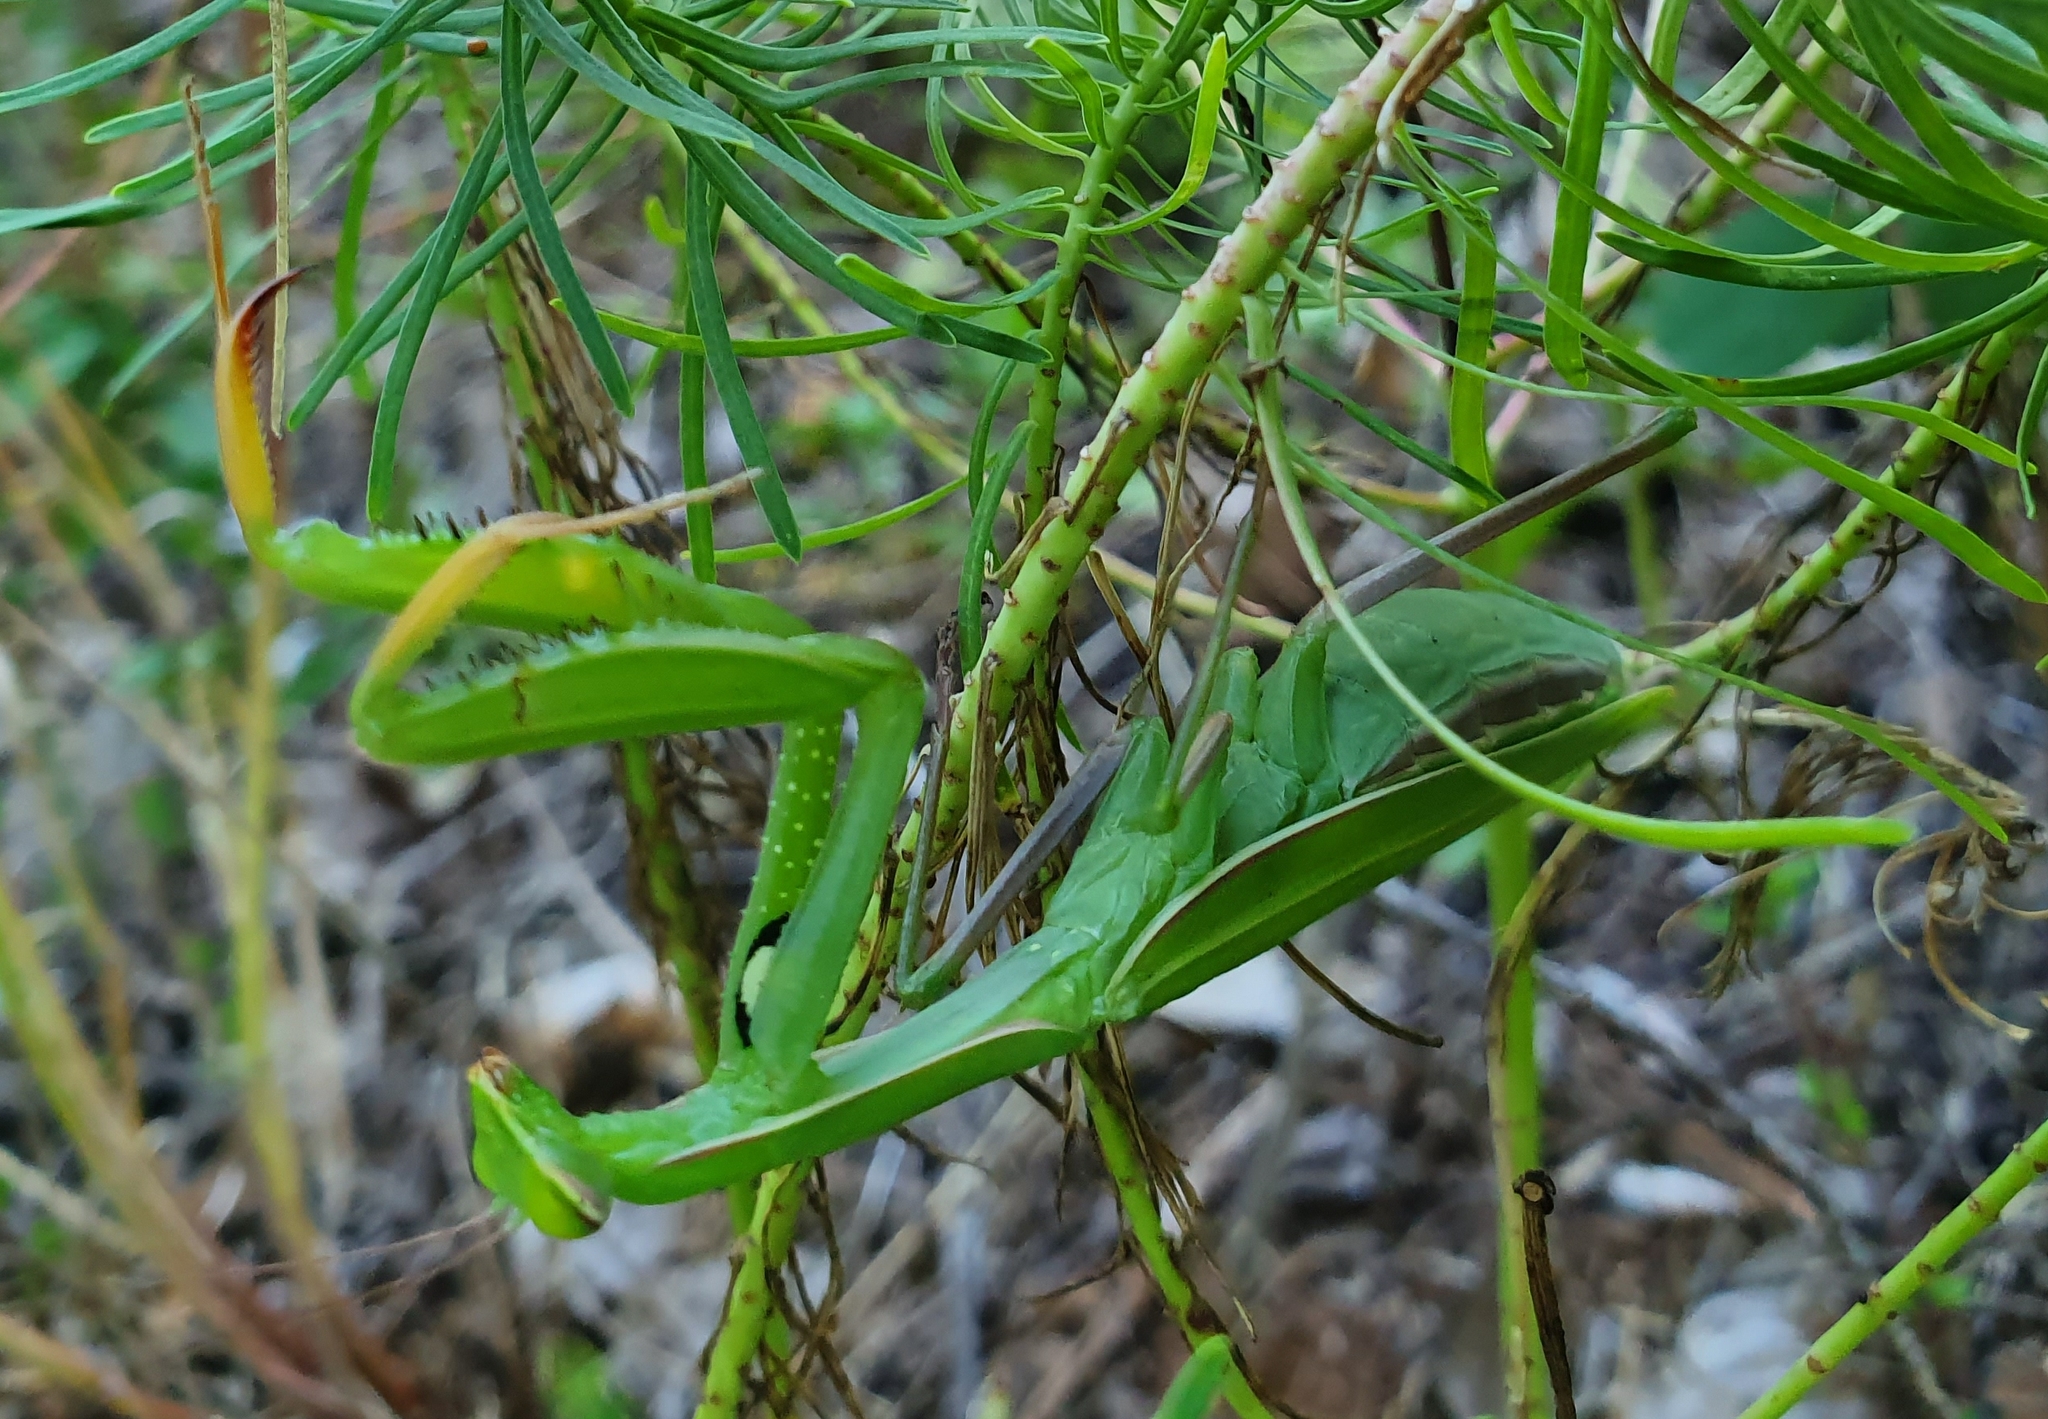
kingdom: Animalia
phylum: Arthropoda
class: Insecta
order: Mantodea
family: Mantidae
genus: Mantis
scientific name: Mantis religiosa
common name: Praying mantis
